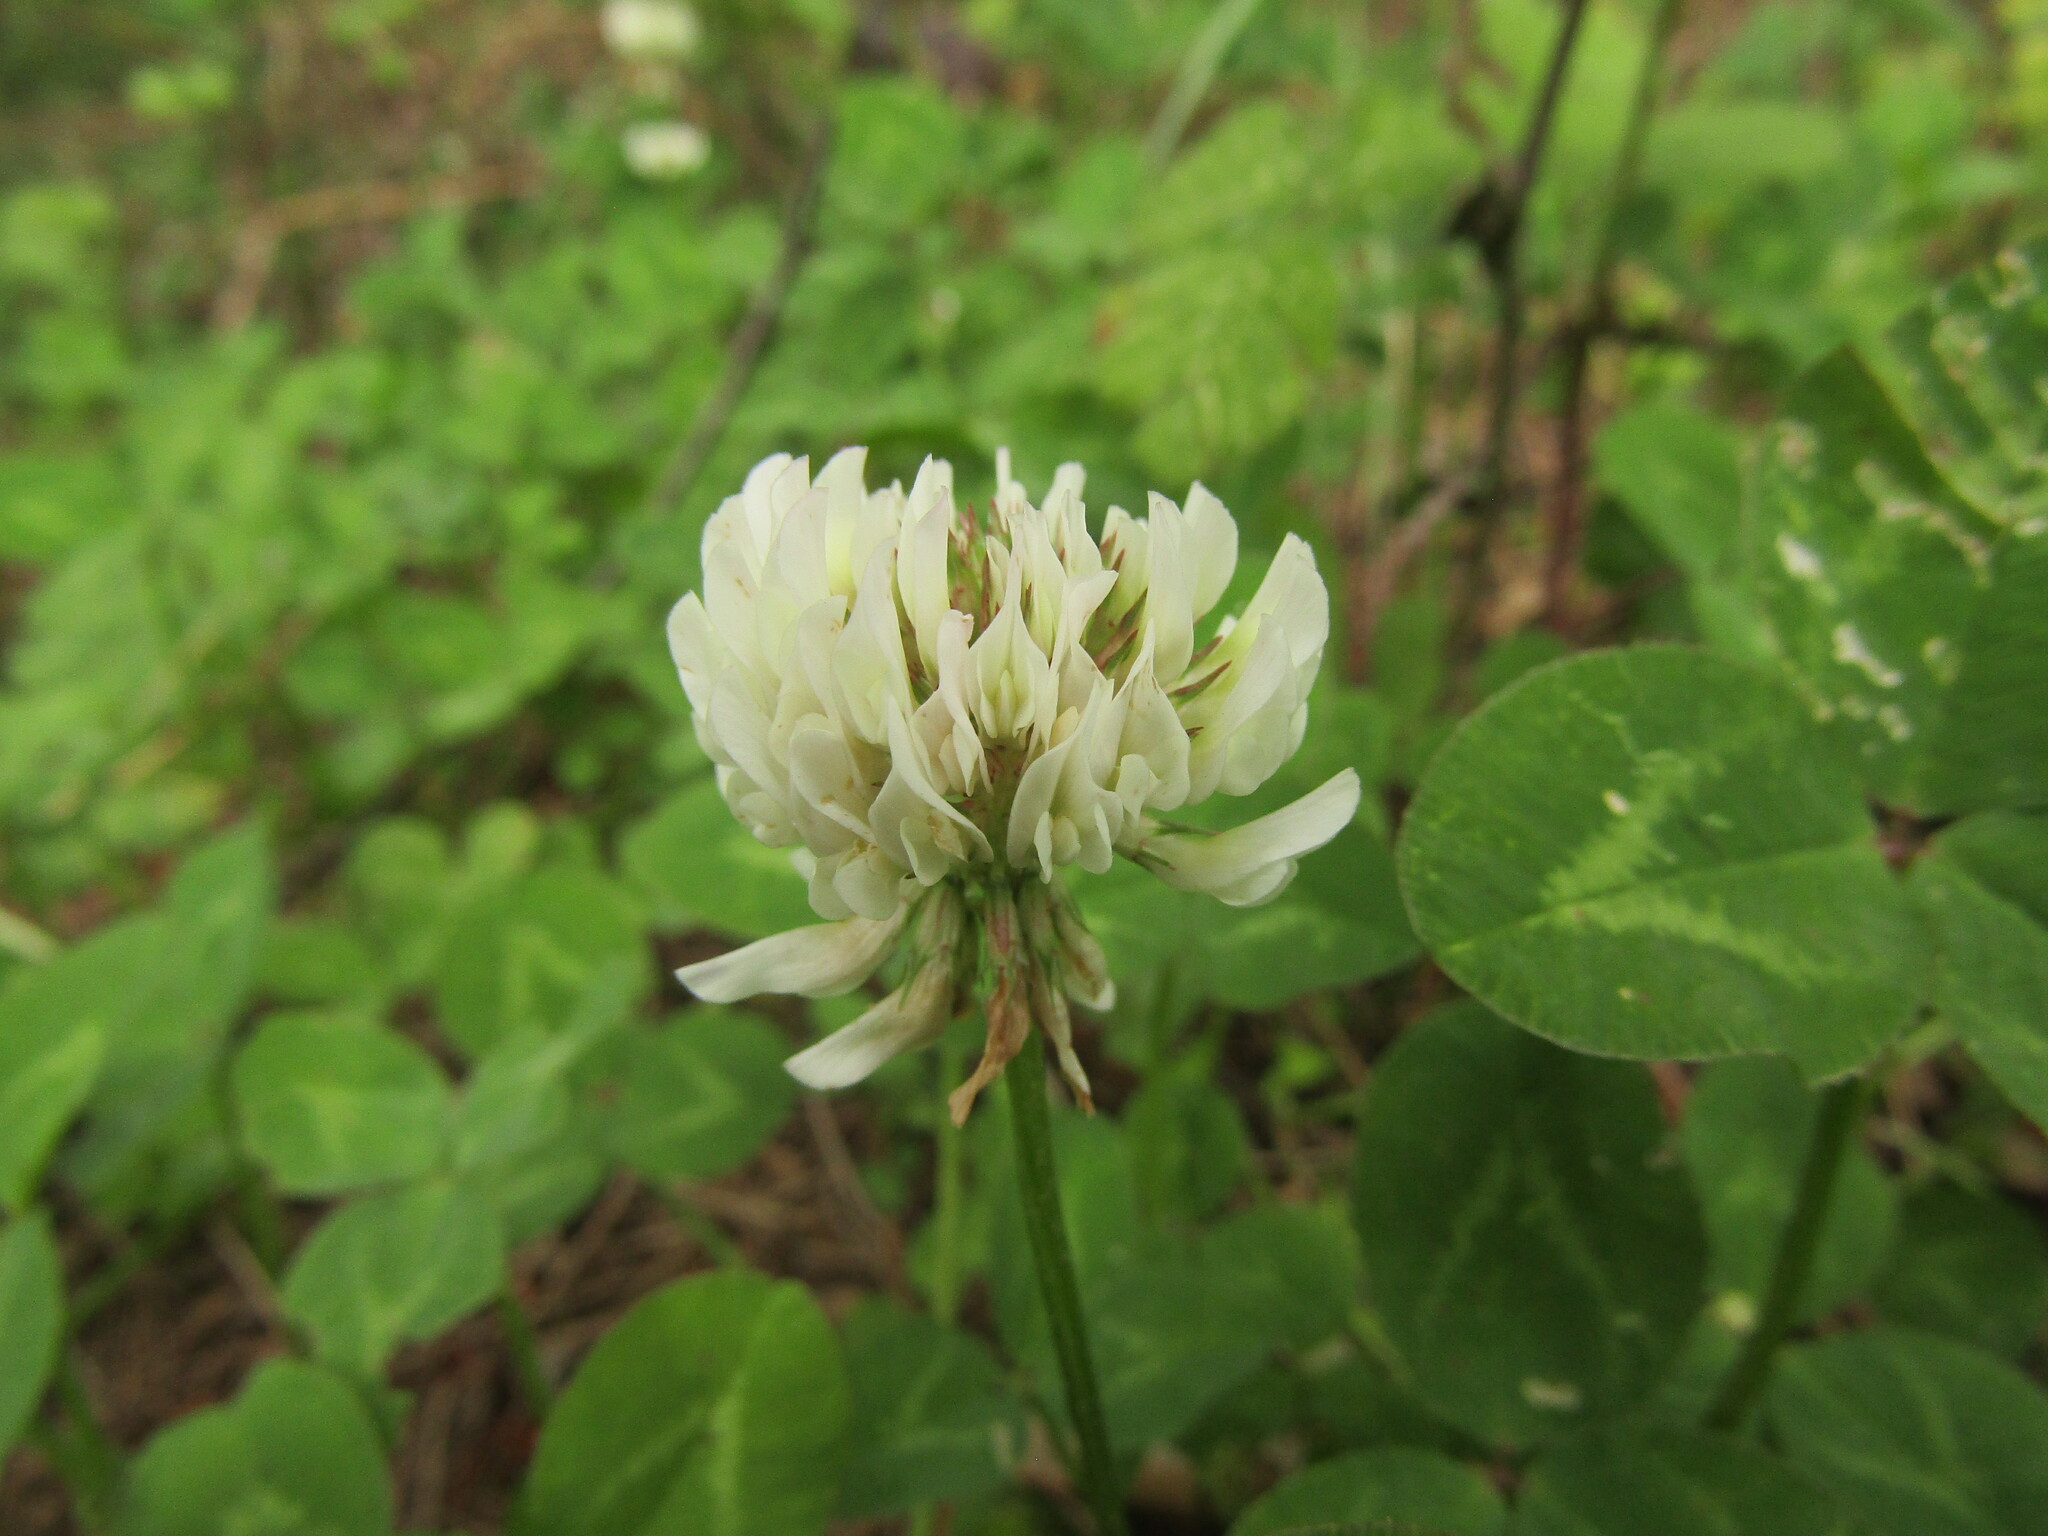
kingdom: Plantae
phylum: Tracheophyta
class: Magnoliopsida
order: Fabales
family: Fabaceae
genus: Trifolium
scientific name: Trifolium repens
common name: White clover
